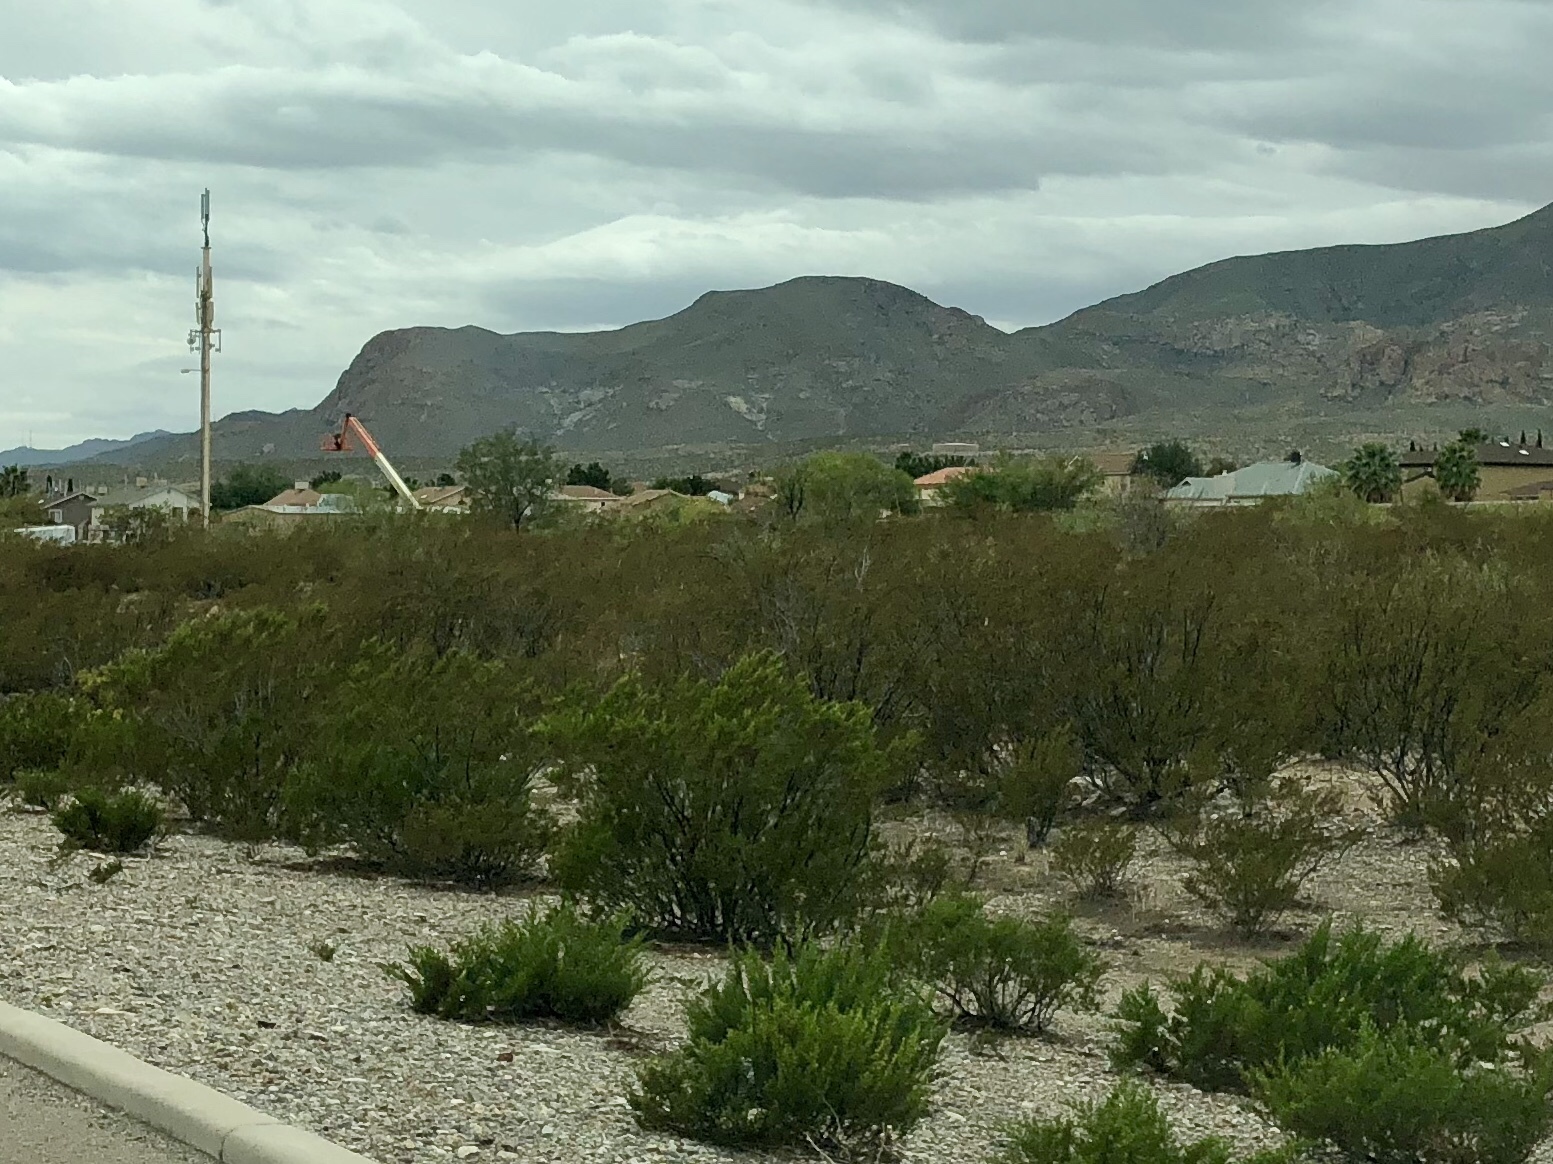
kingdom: Plantae
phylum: Tracheophyta
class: Magnoliopsida
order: Zygophyllales
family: Zygophyllaceae
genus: Larrea
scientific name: Larrea tridentata
